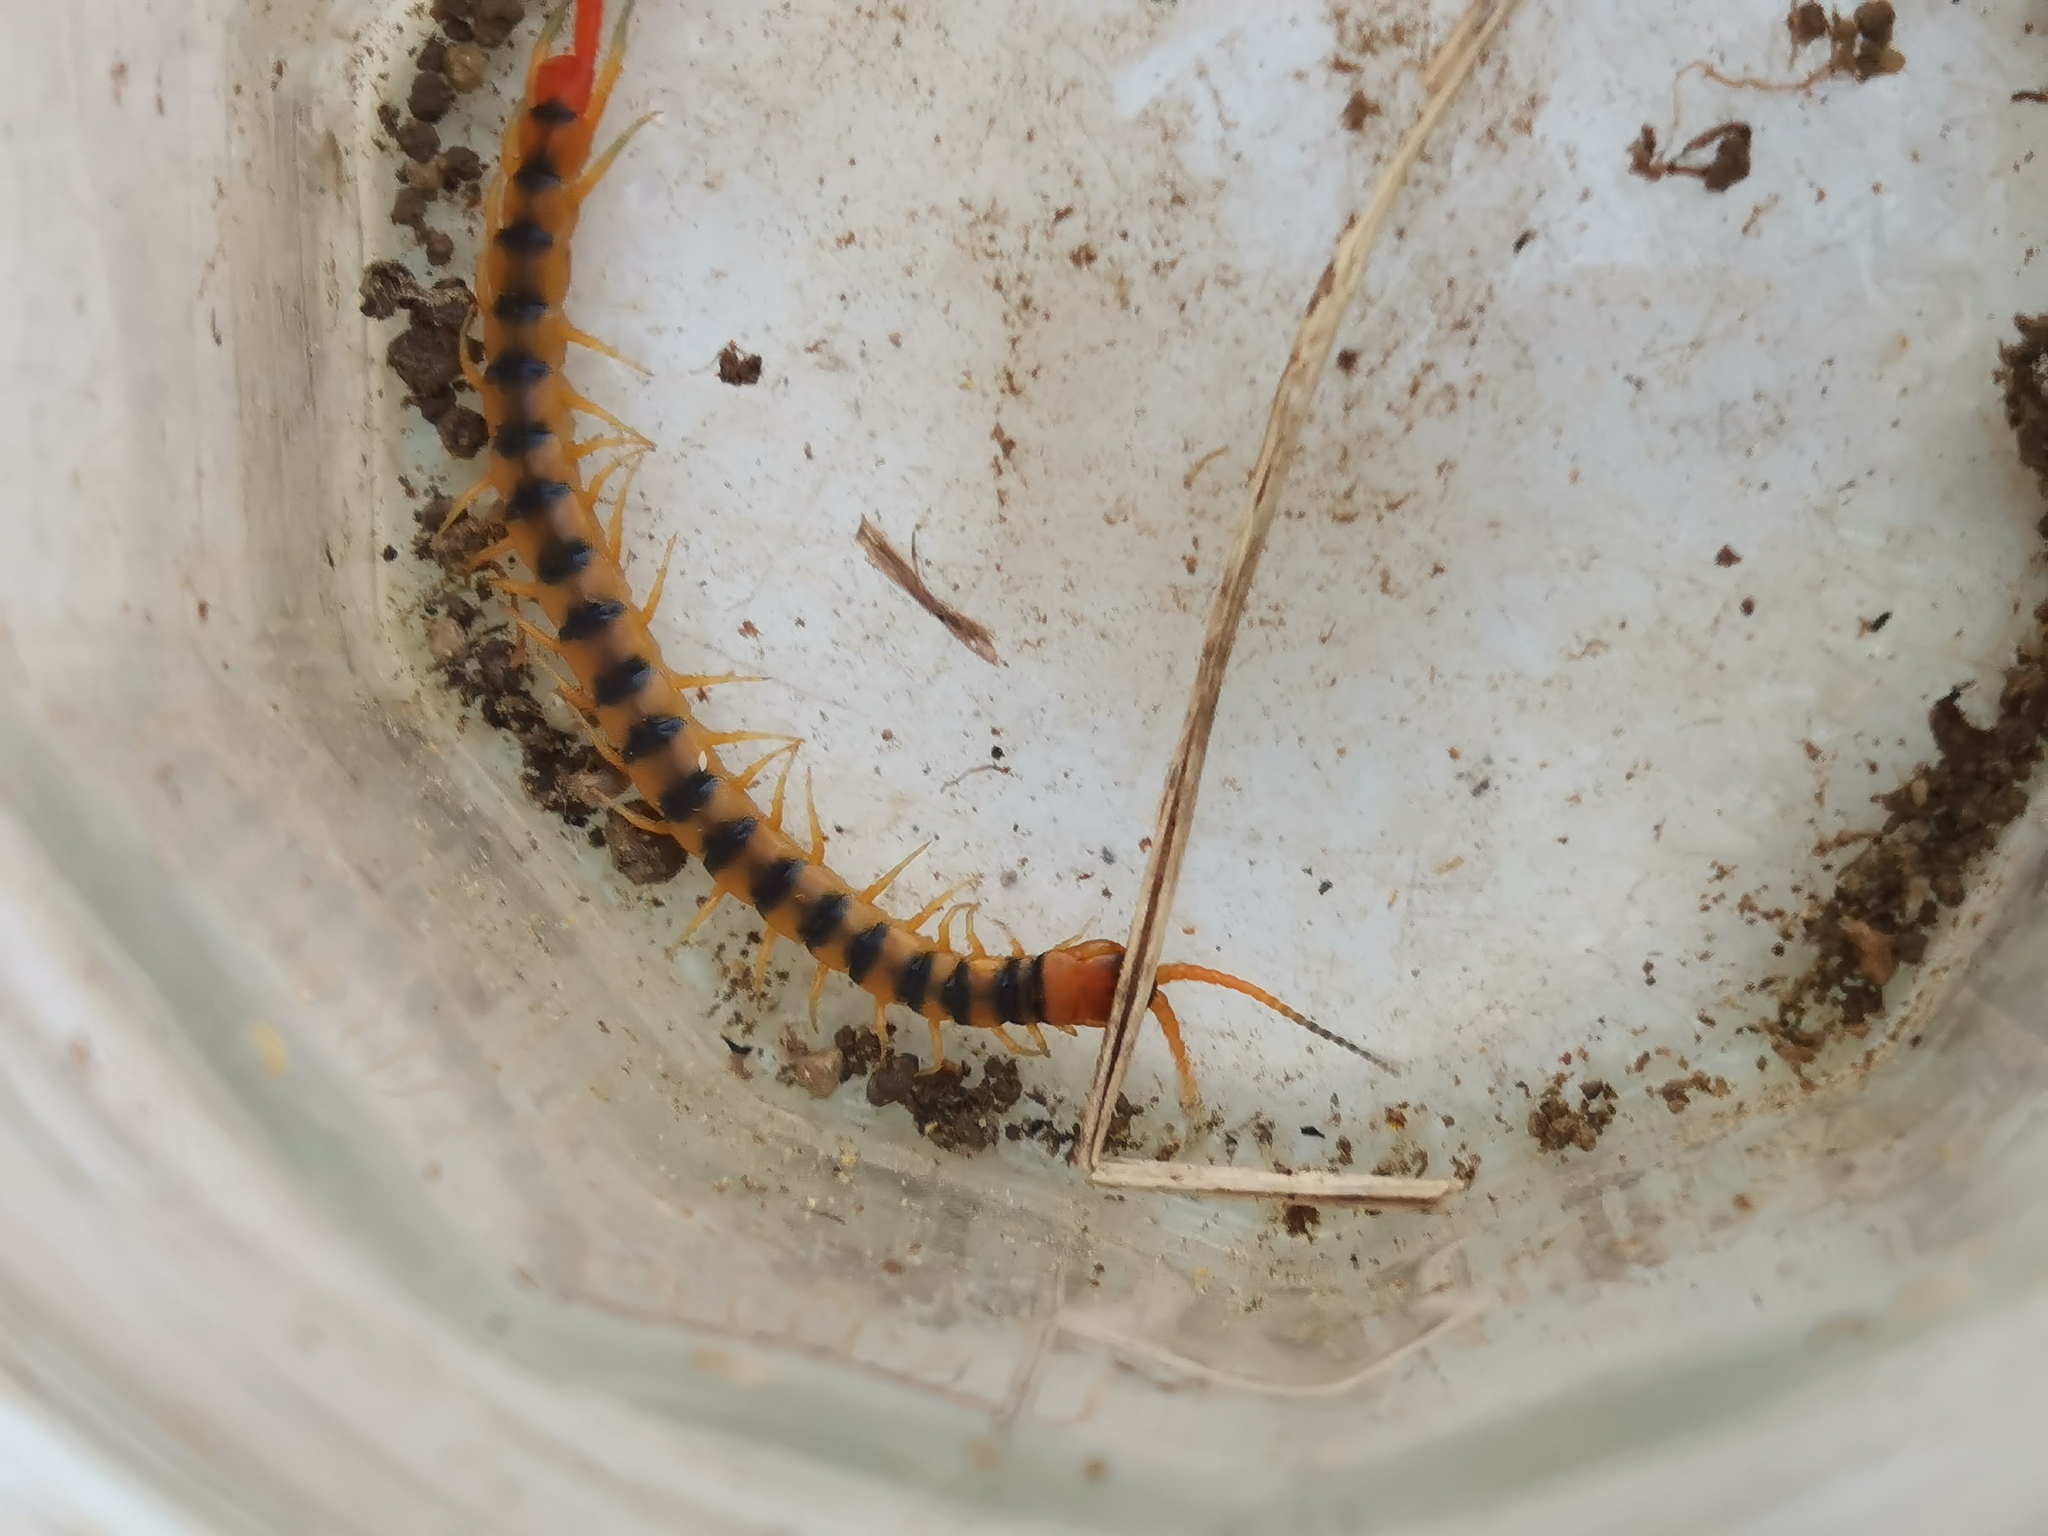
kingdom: Animalia
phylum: Arthropoda
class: Chilopoda
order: Scolopendromorpha
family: Scolopendridae
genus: Scolopendra
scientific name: Scolopendra cingulata
